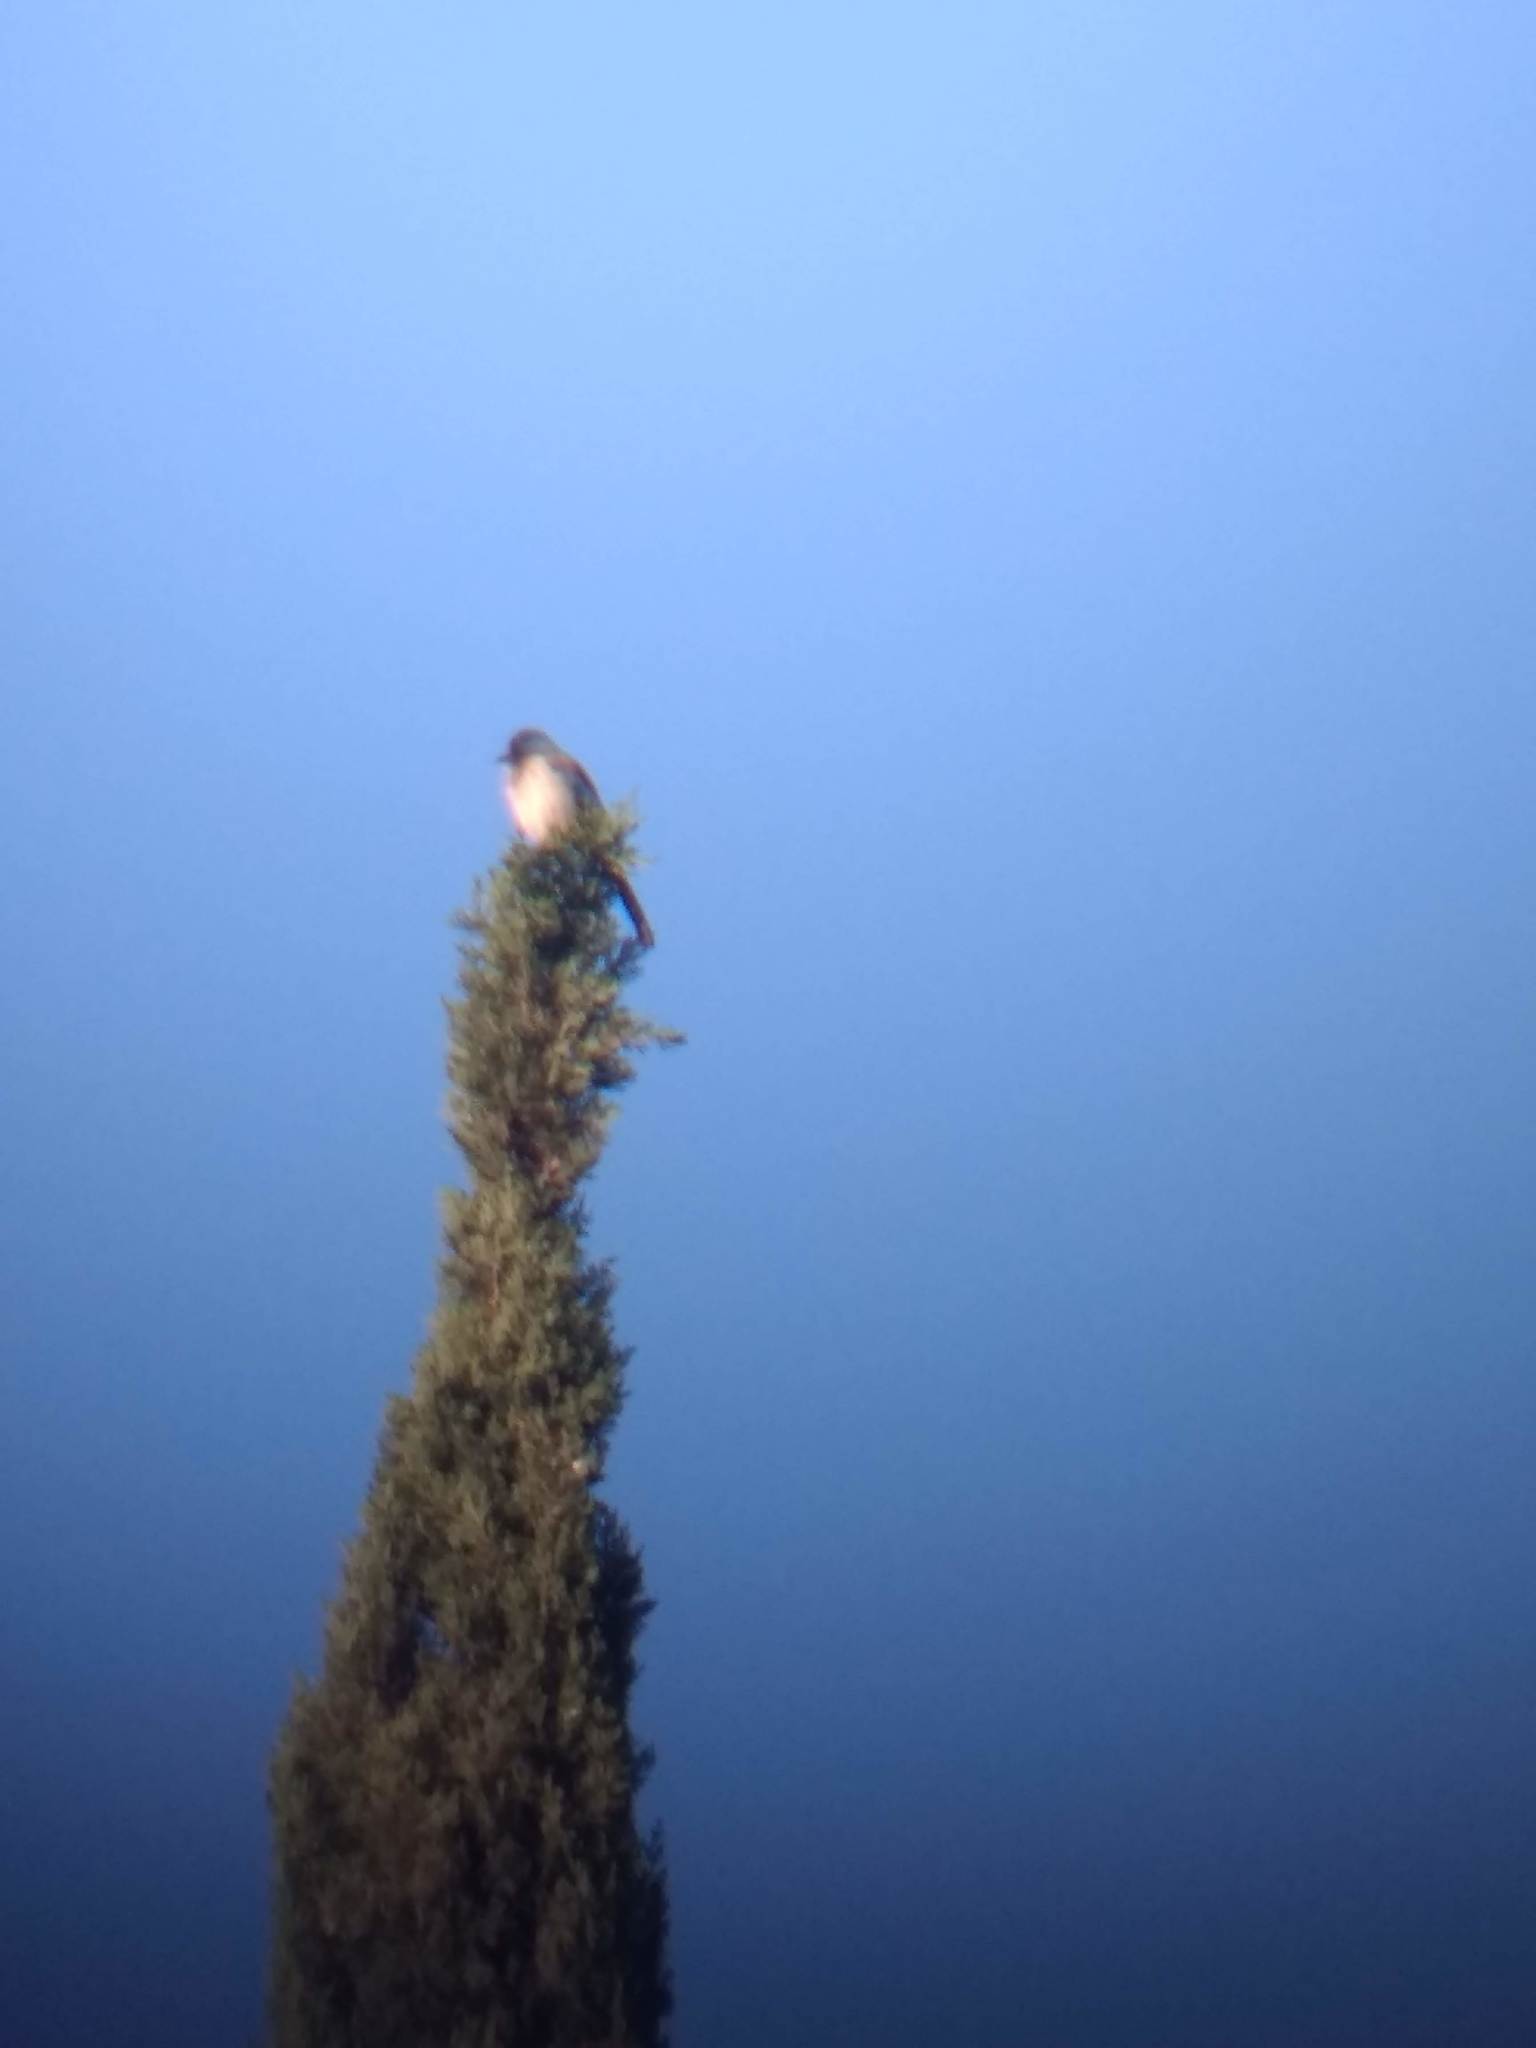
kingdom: Animalia
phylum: Chordata
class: Aves
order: Passeriformes
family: Corvidae
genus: Aphelocoma
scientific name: Aphelocoma californica
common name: California scrub-jay
